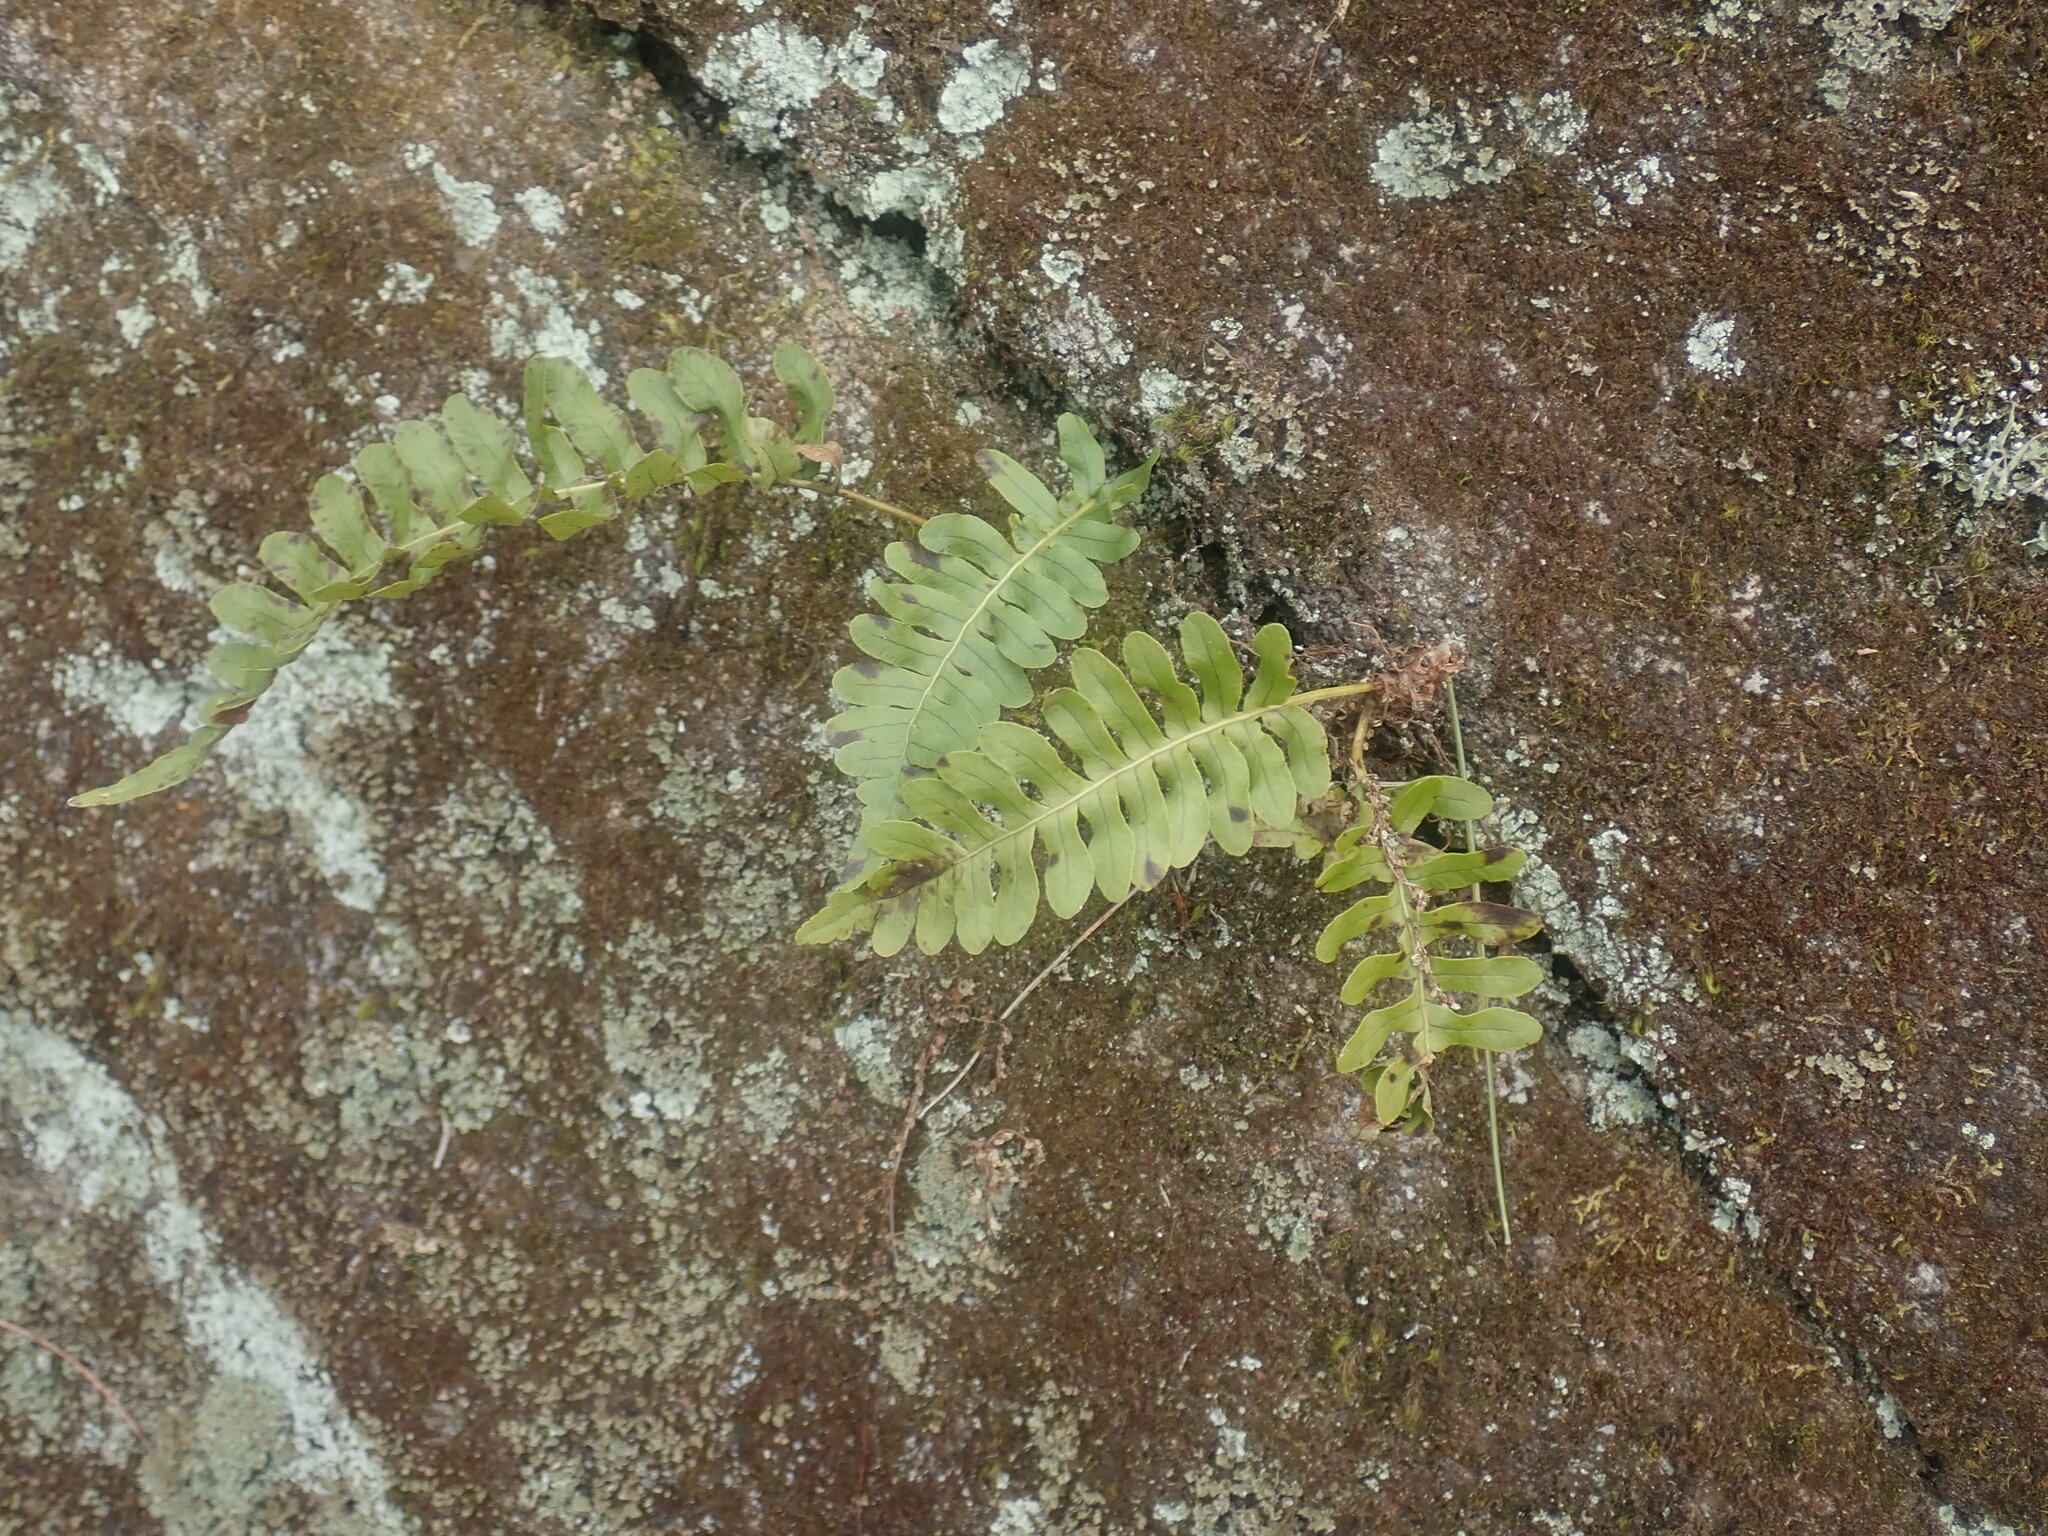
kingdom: Plantae
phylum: Tracheophyta
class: Polypodiopsida
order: Polypodiales
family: Polypodiaceae
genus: Polypodium
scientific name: Polypodium
